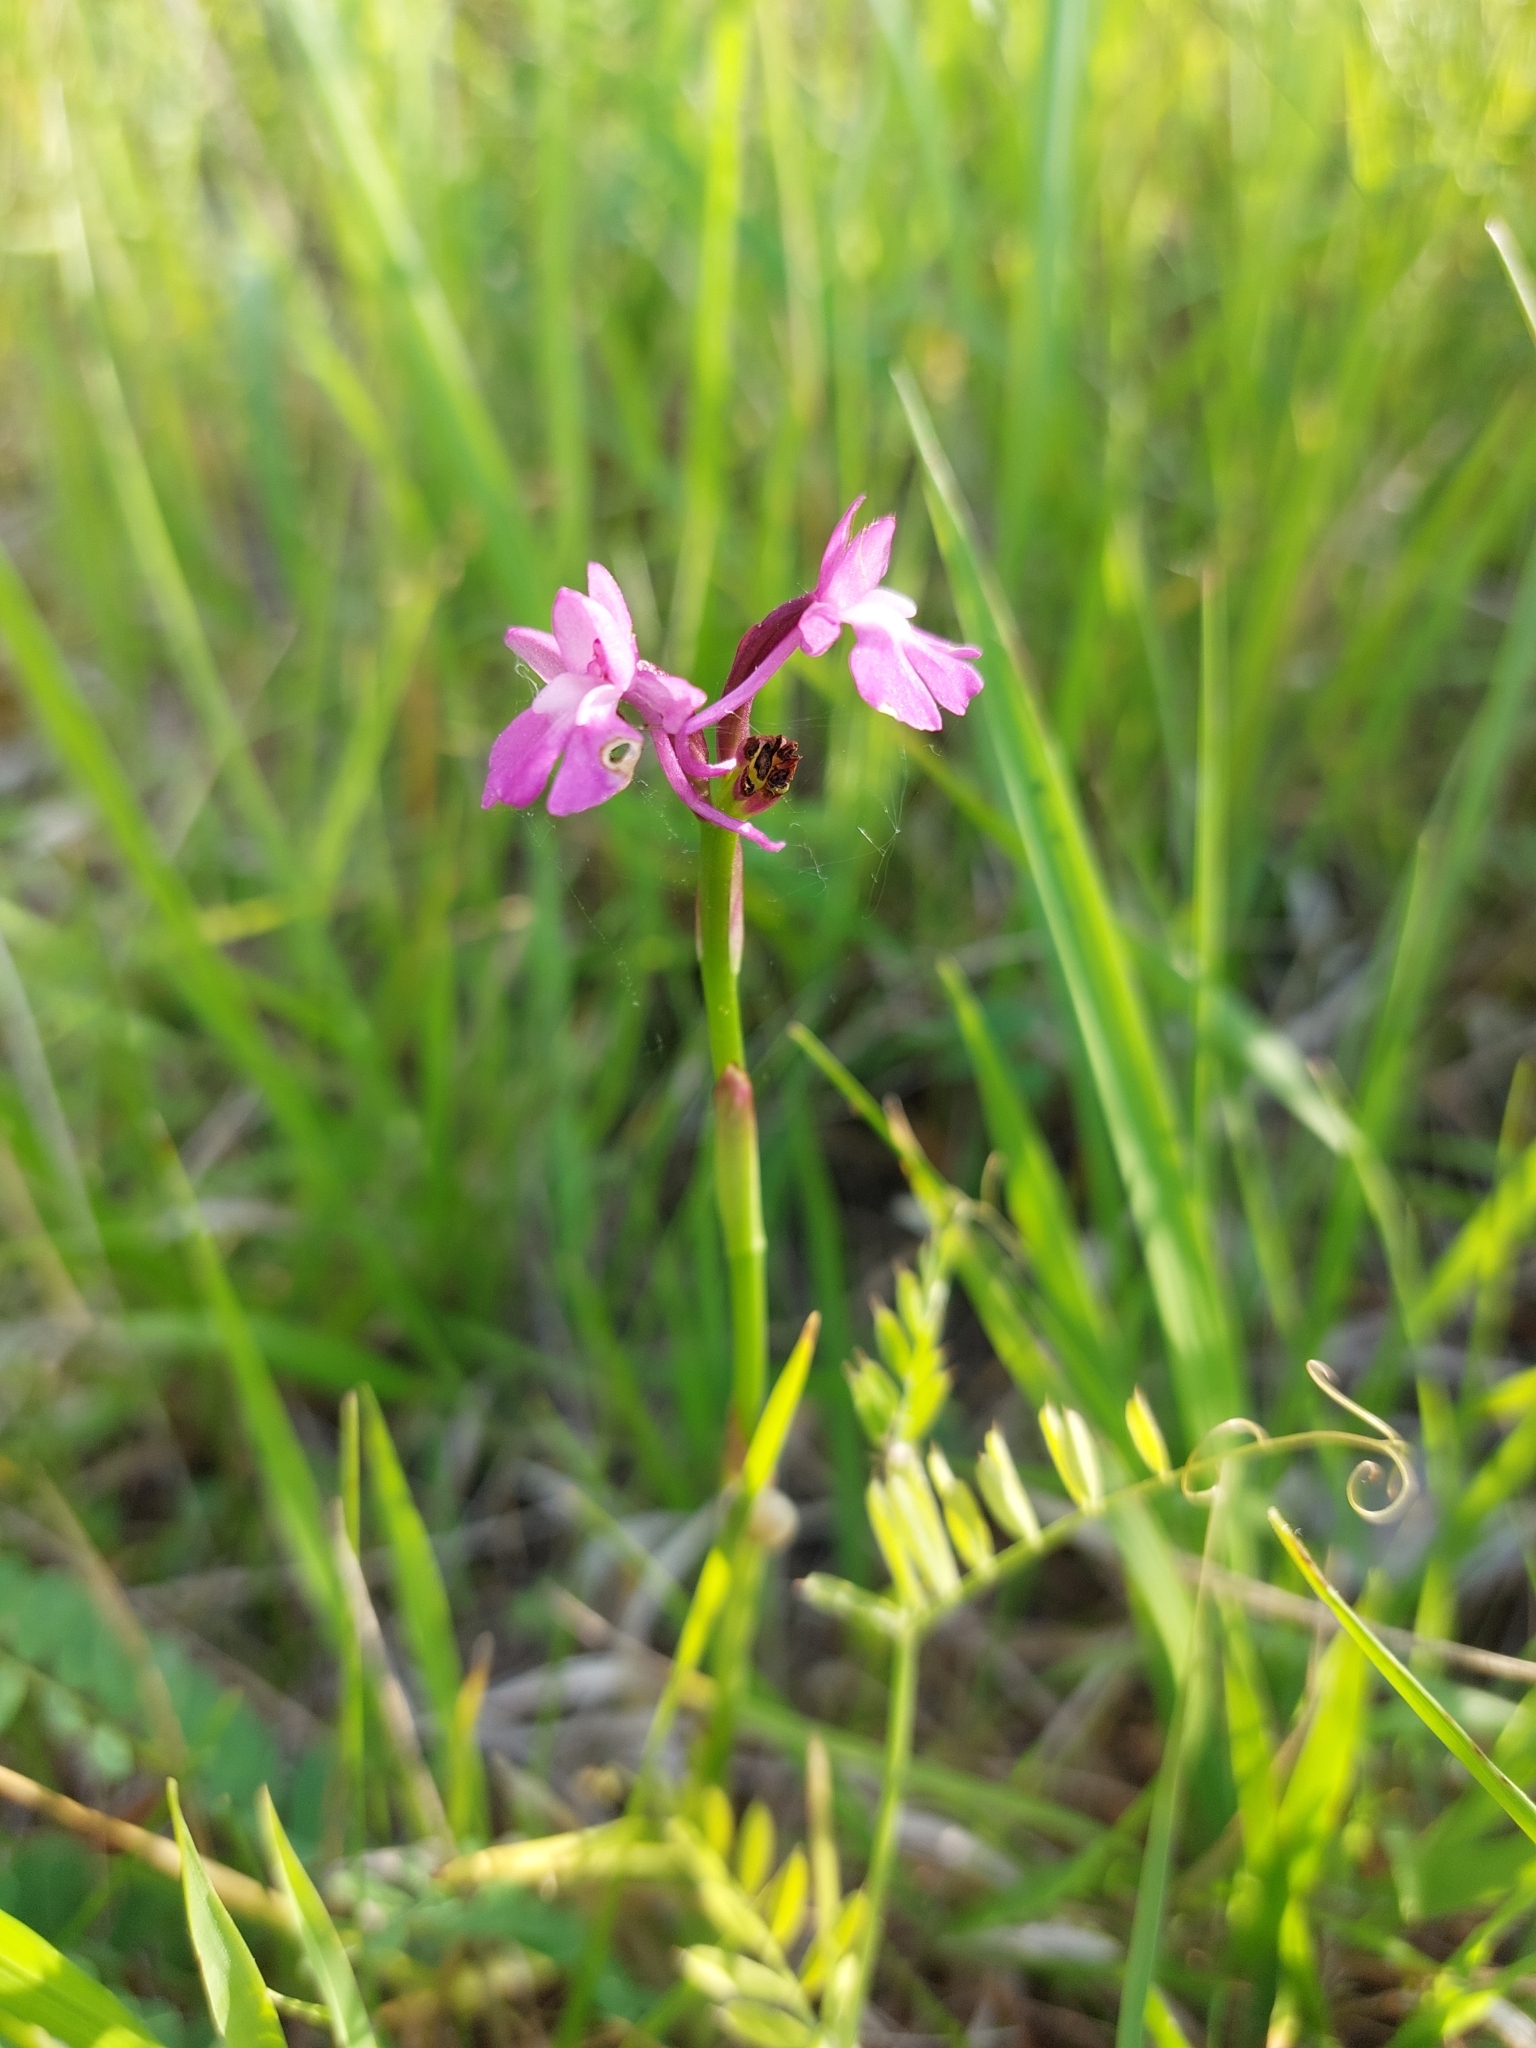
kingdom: Plantae
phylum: Tracheophyta
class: Liliopsida
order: Asparagales
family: Orchidaceae
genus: Anacamptis
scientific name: Anacamptis pyramidalis
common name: Pyramidal orchid
